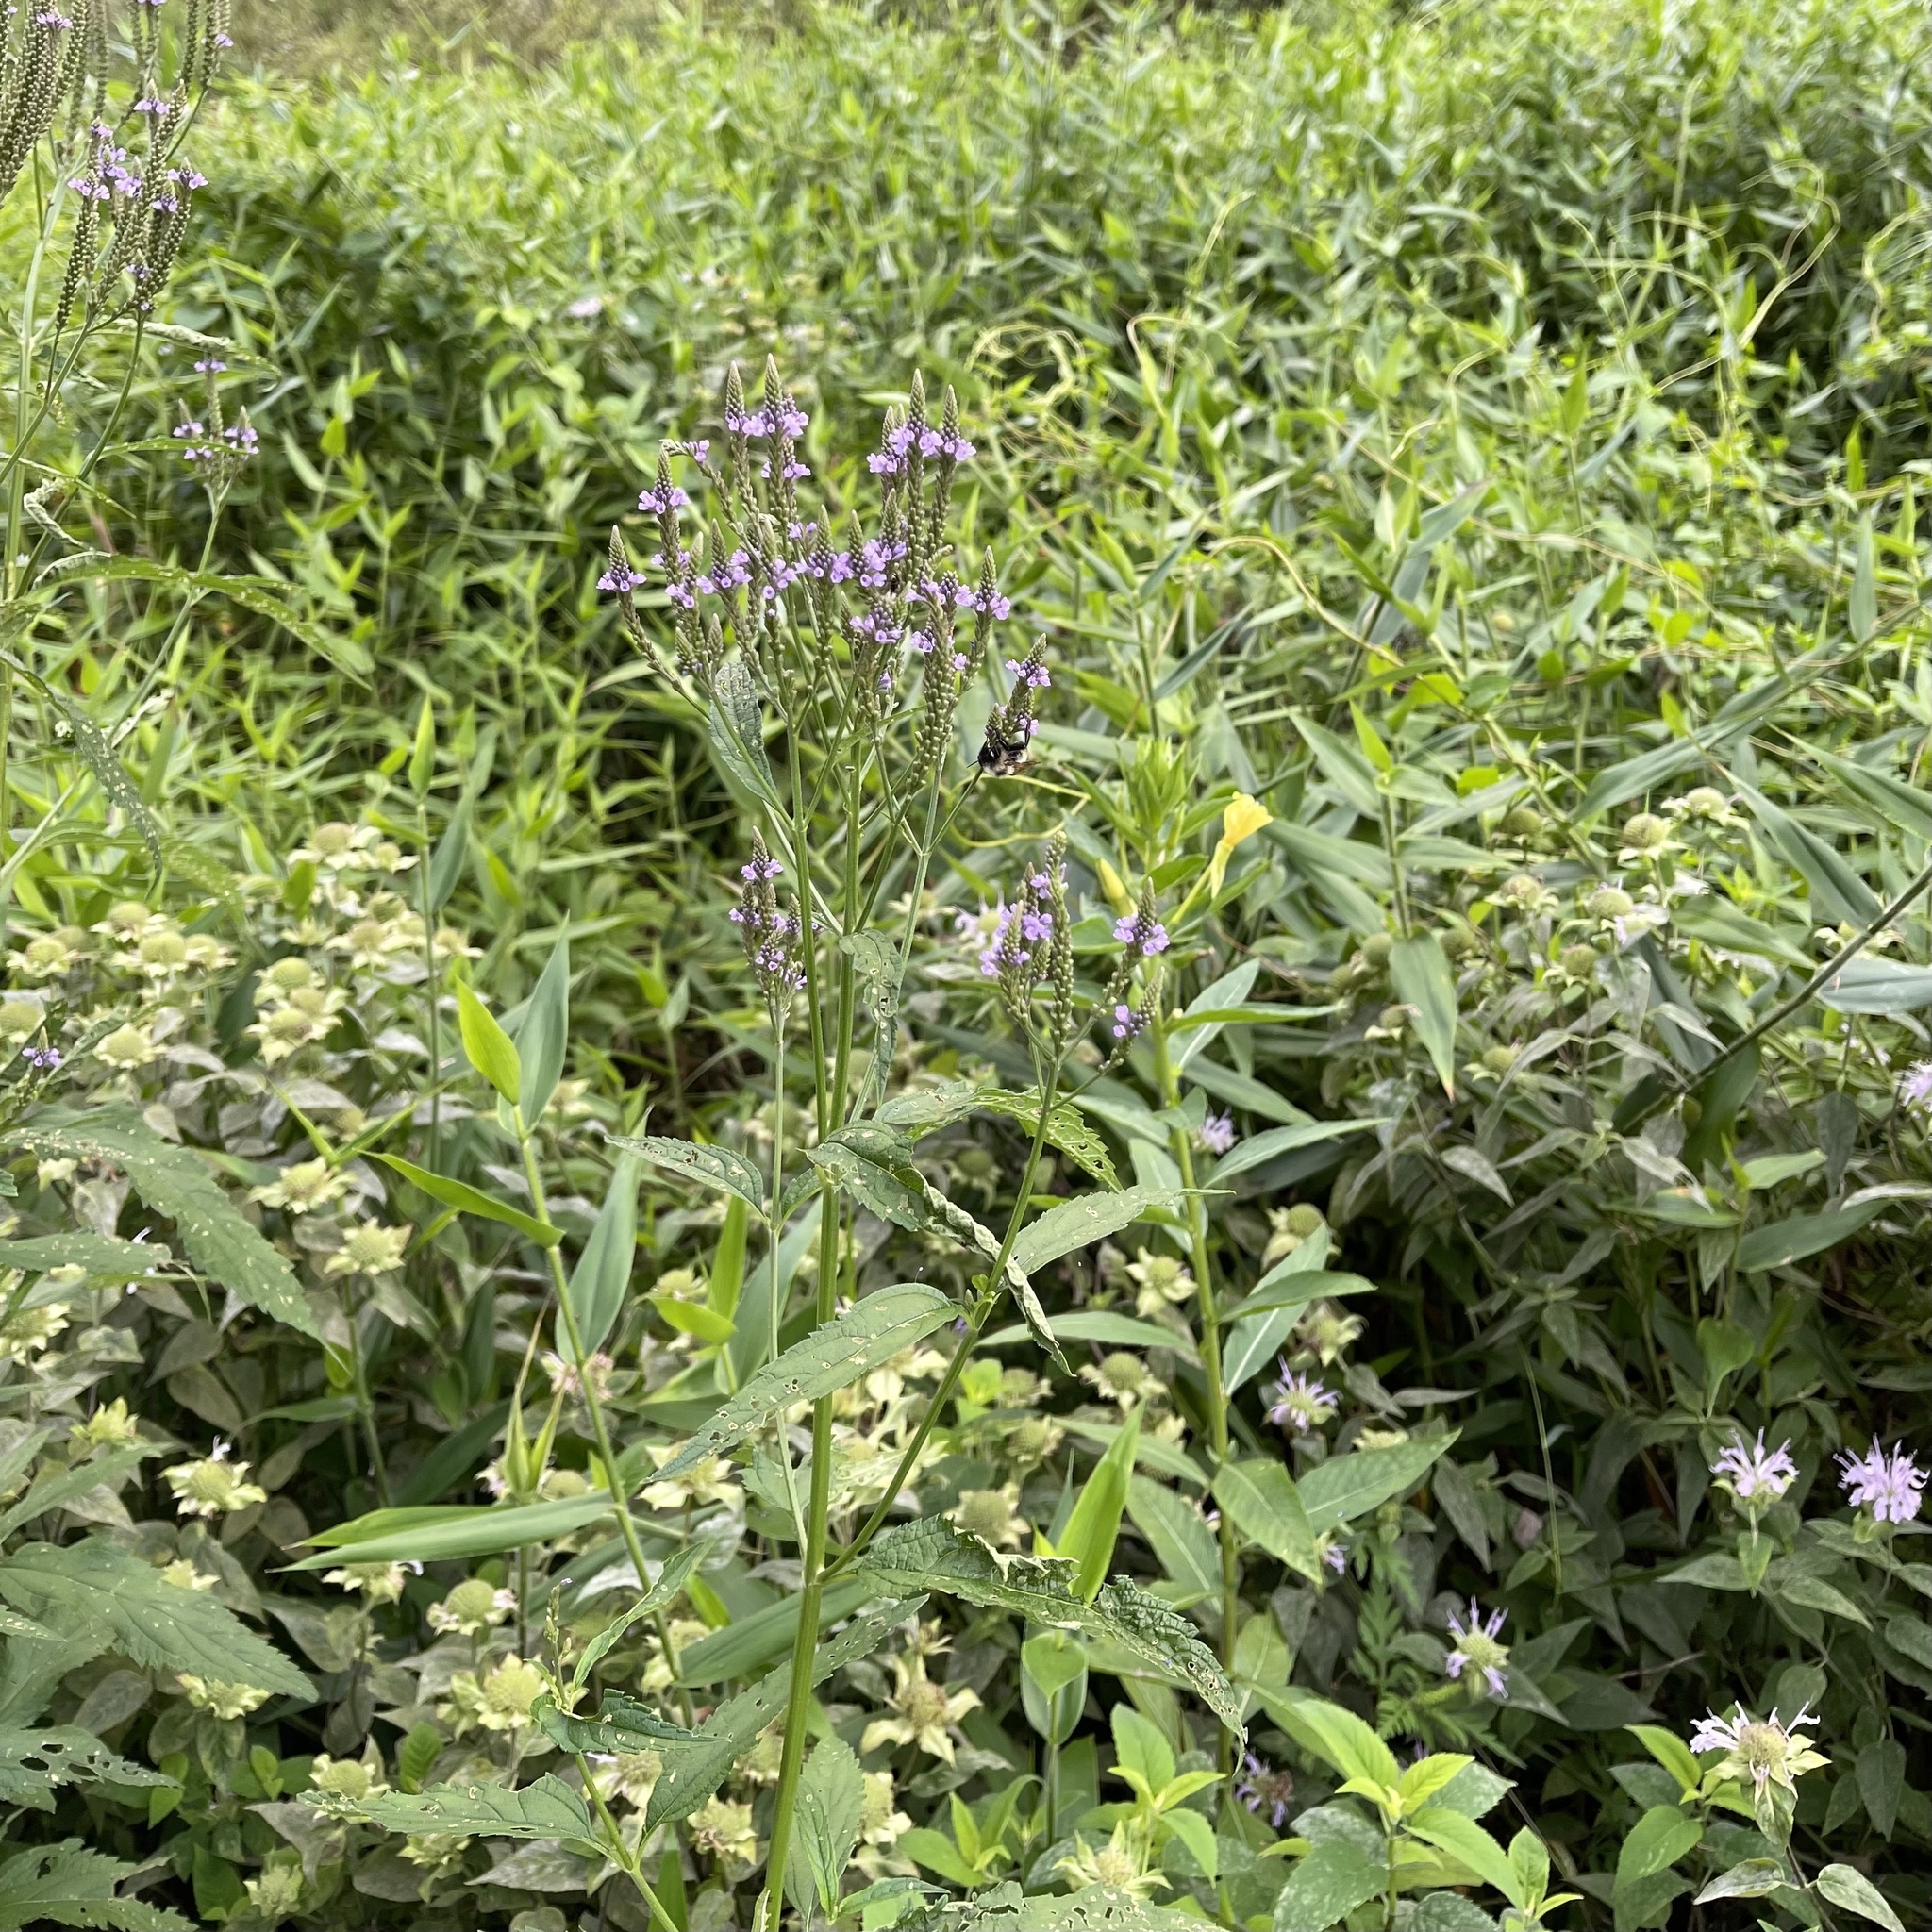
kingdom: Plantae
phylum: Tracheophyta
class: Magnoliopsida
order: Lamiales
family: Verbenaceae
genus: Verbena
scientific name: Verbena hastata
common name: American blue vervain
